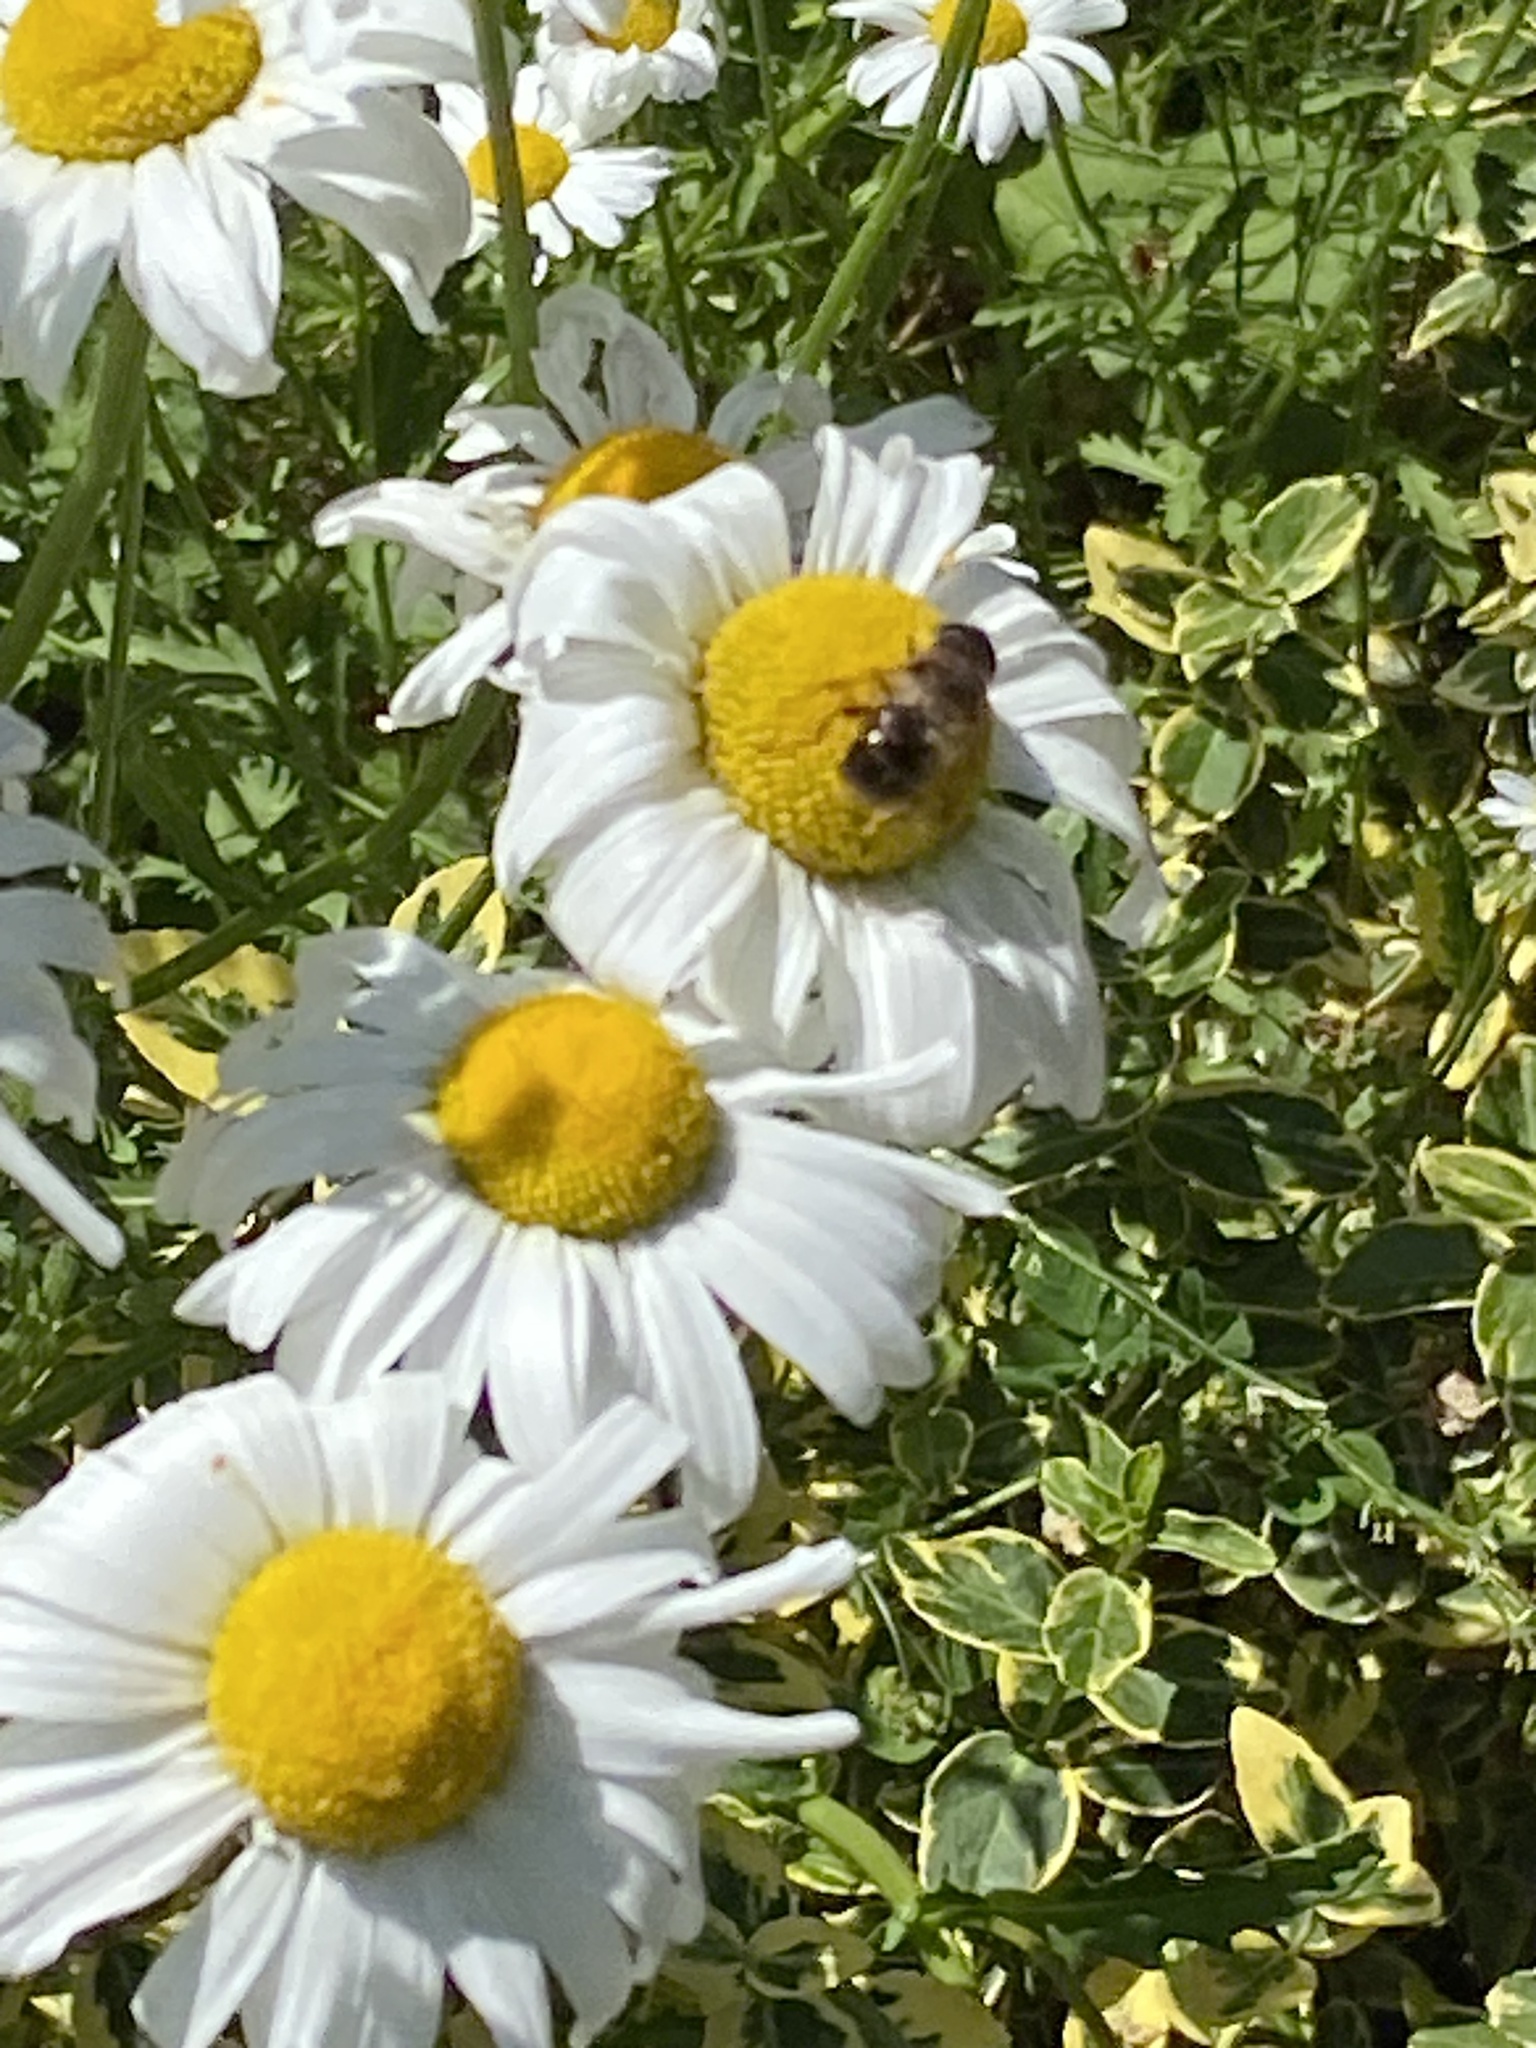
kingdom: Animalia
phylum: Arthropoda
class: Insecta
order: Diptera
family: Syrphidae
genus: Eristalis
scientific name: Eristalis tenax
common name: Drone fly
